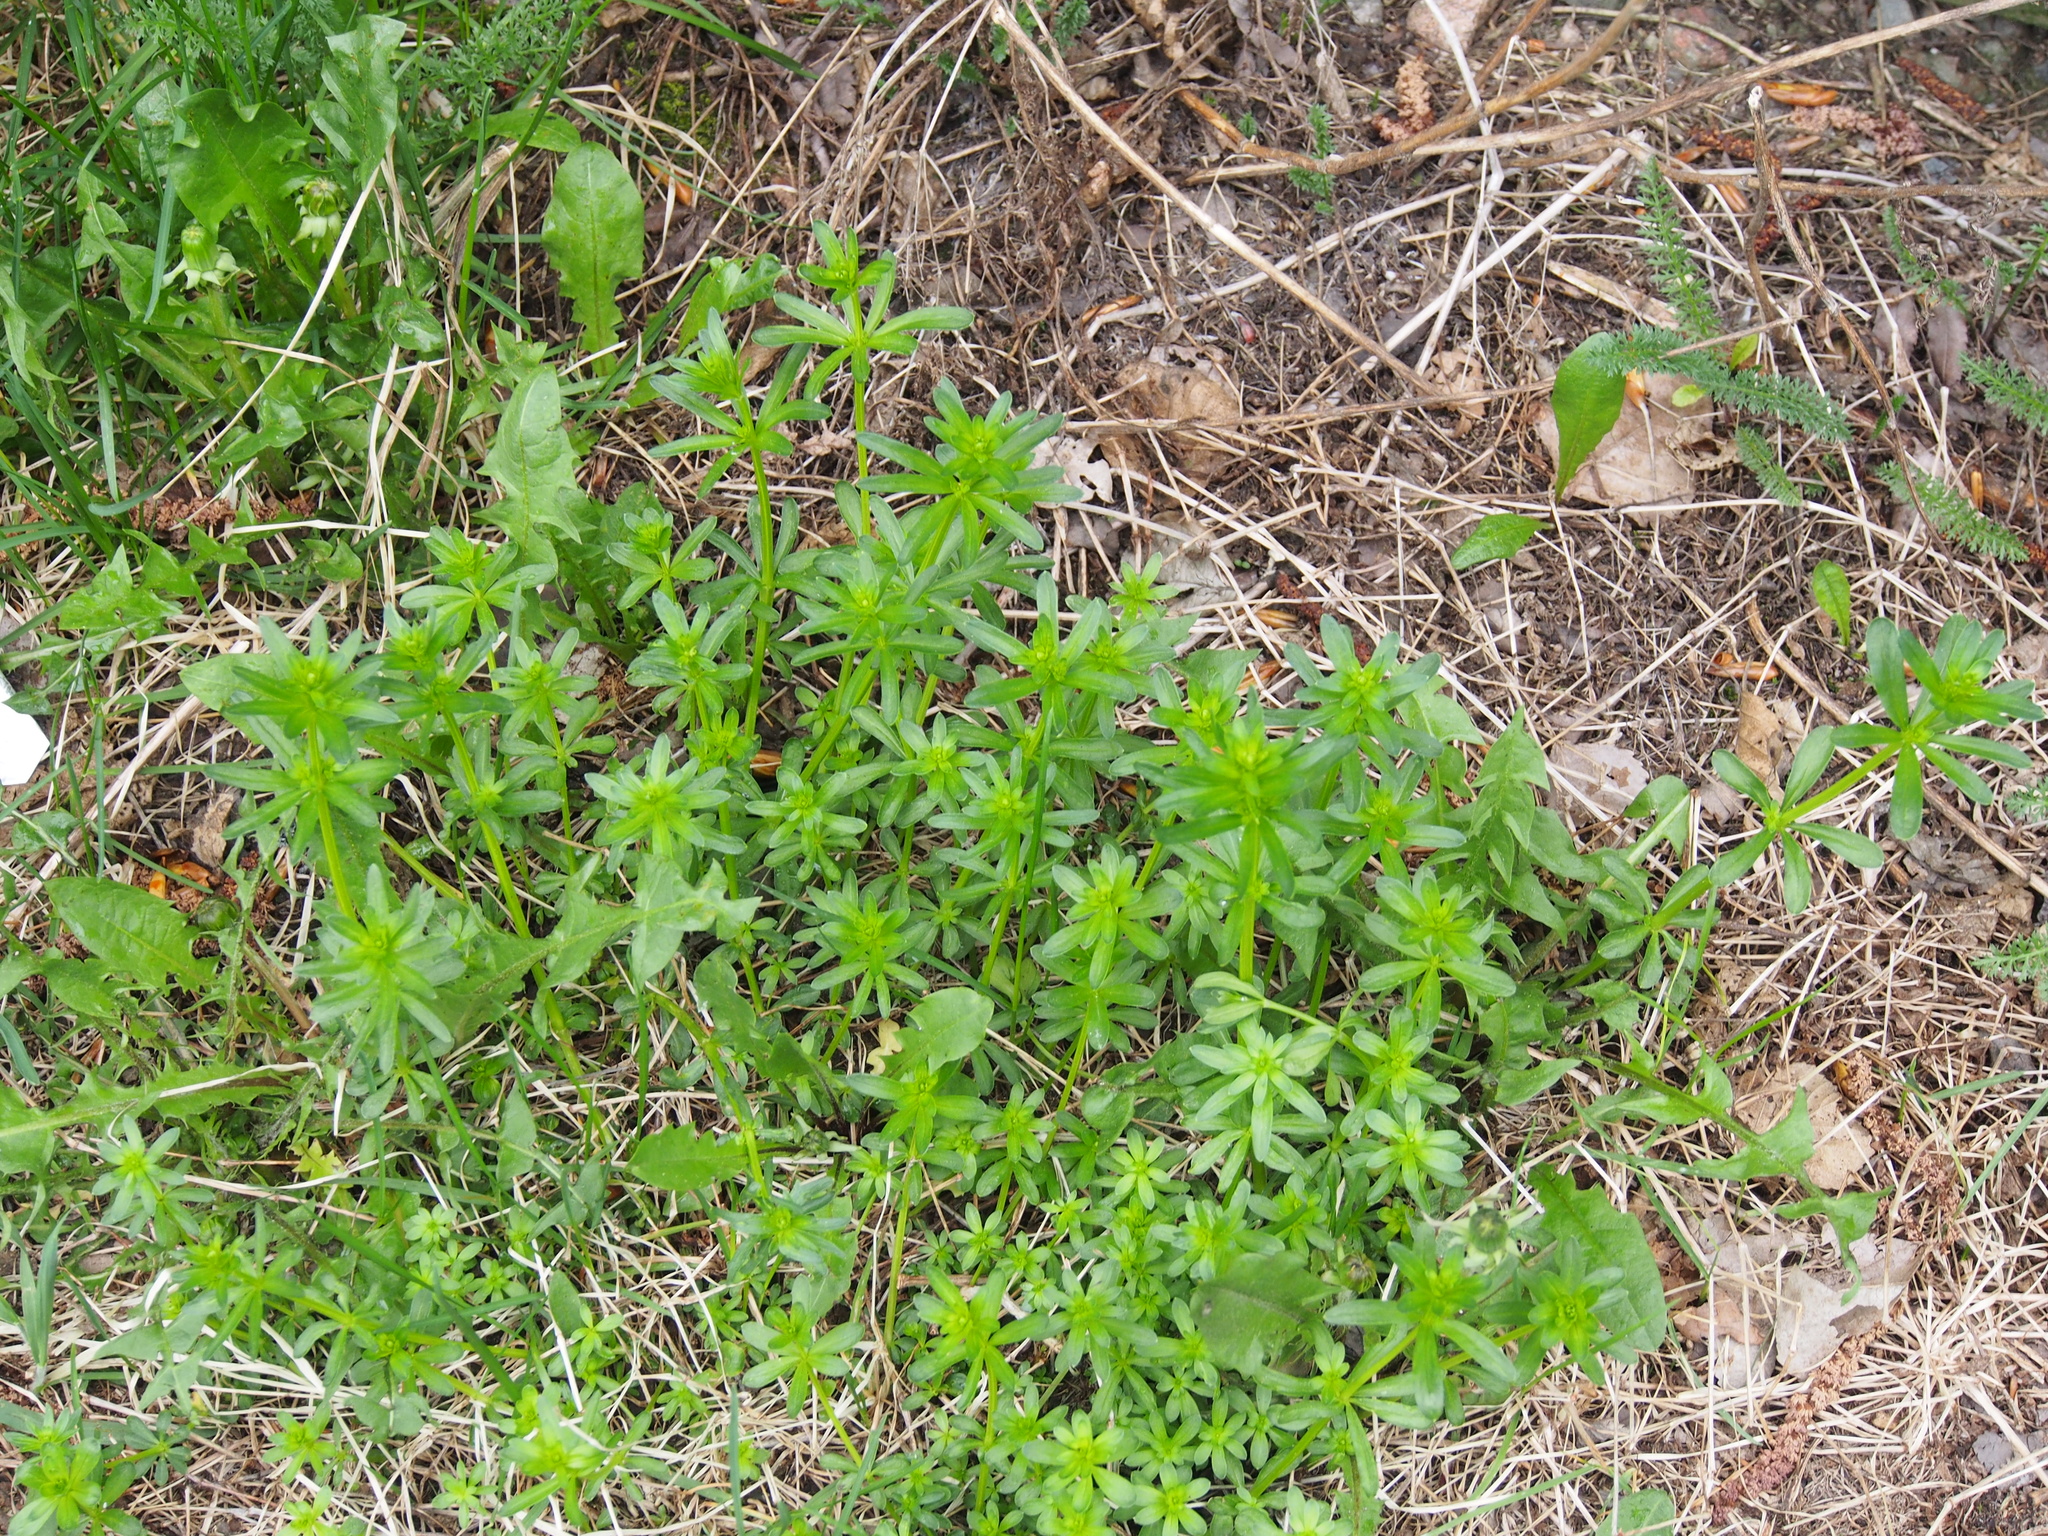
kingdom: Plantae
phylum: Tracheophyta
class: Magnoliopsida
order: Gentianales
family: Rubiaceae
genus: Galium
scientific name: Galium aparine
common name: Cleavers
